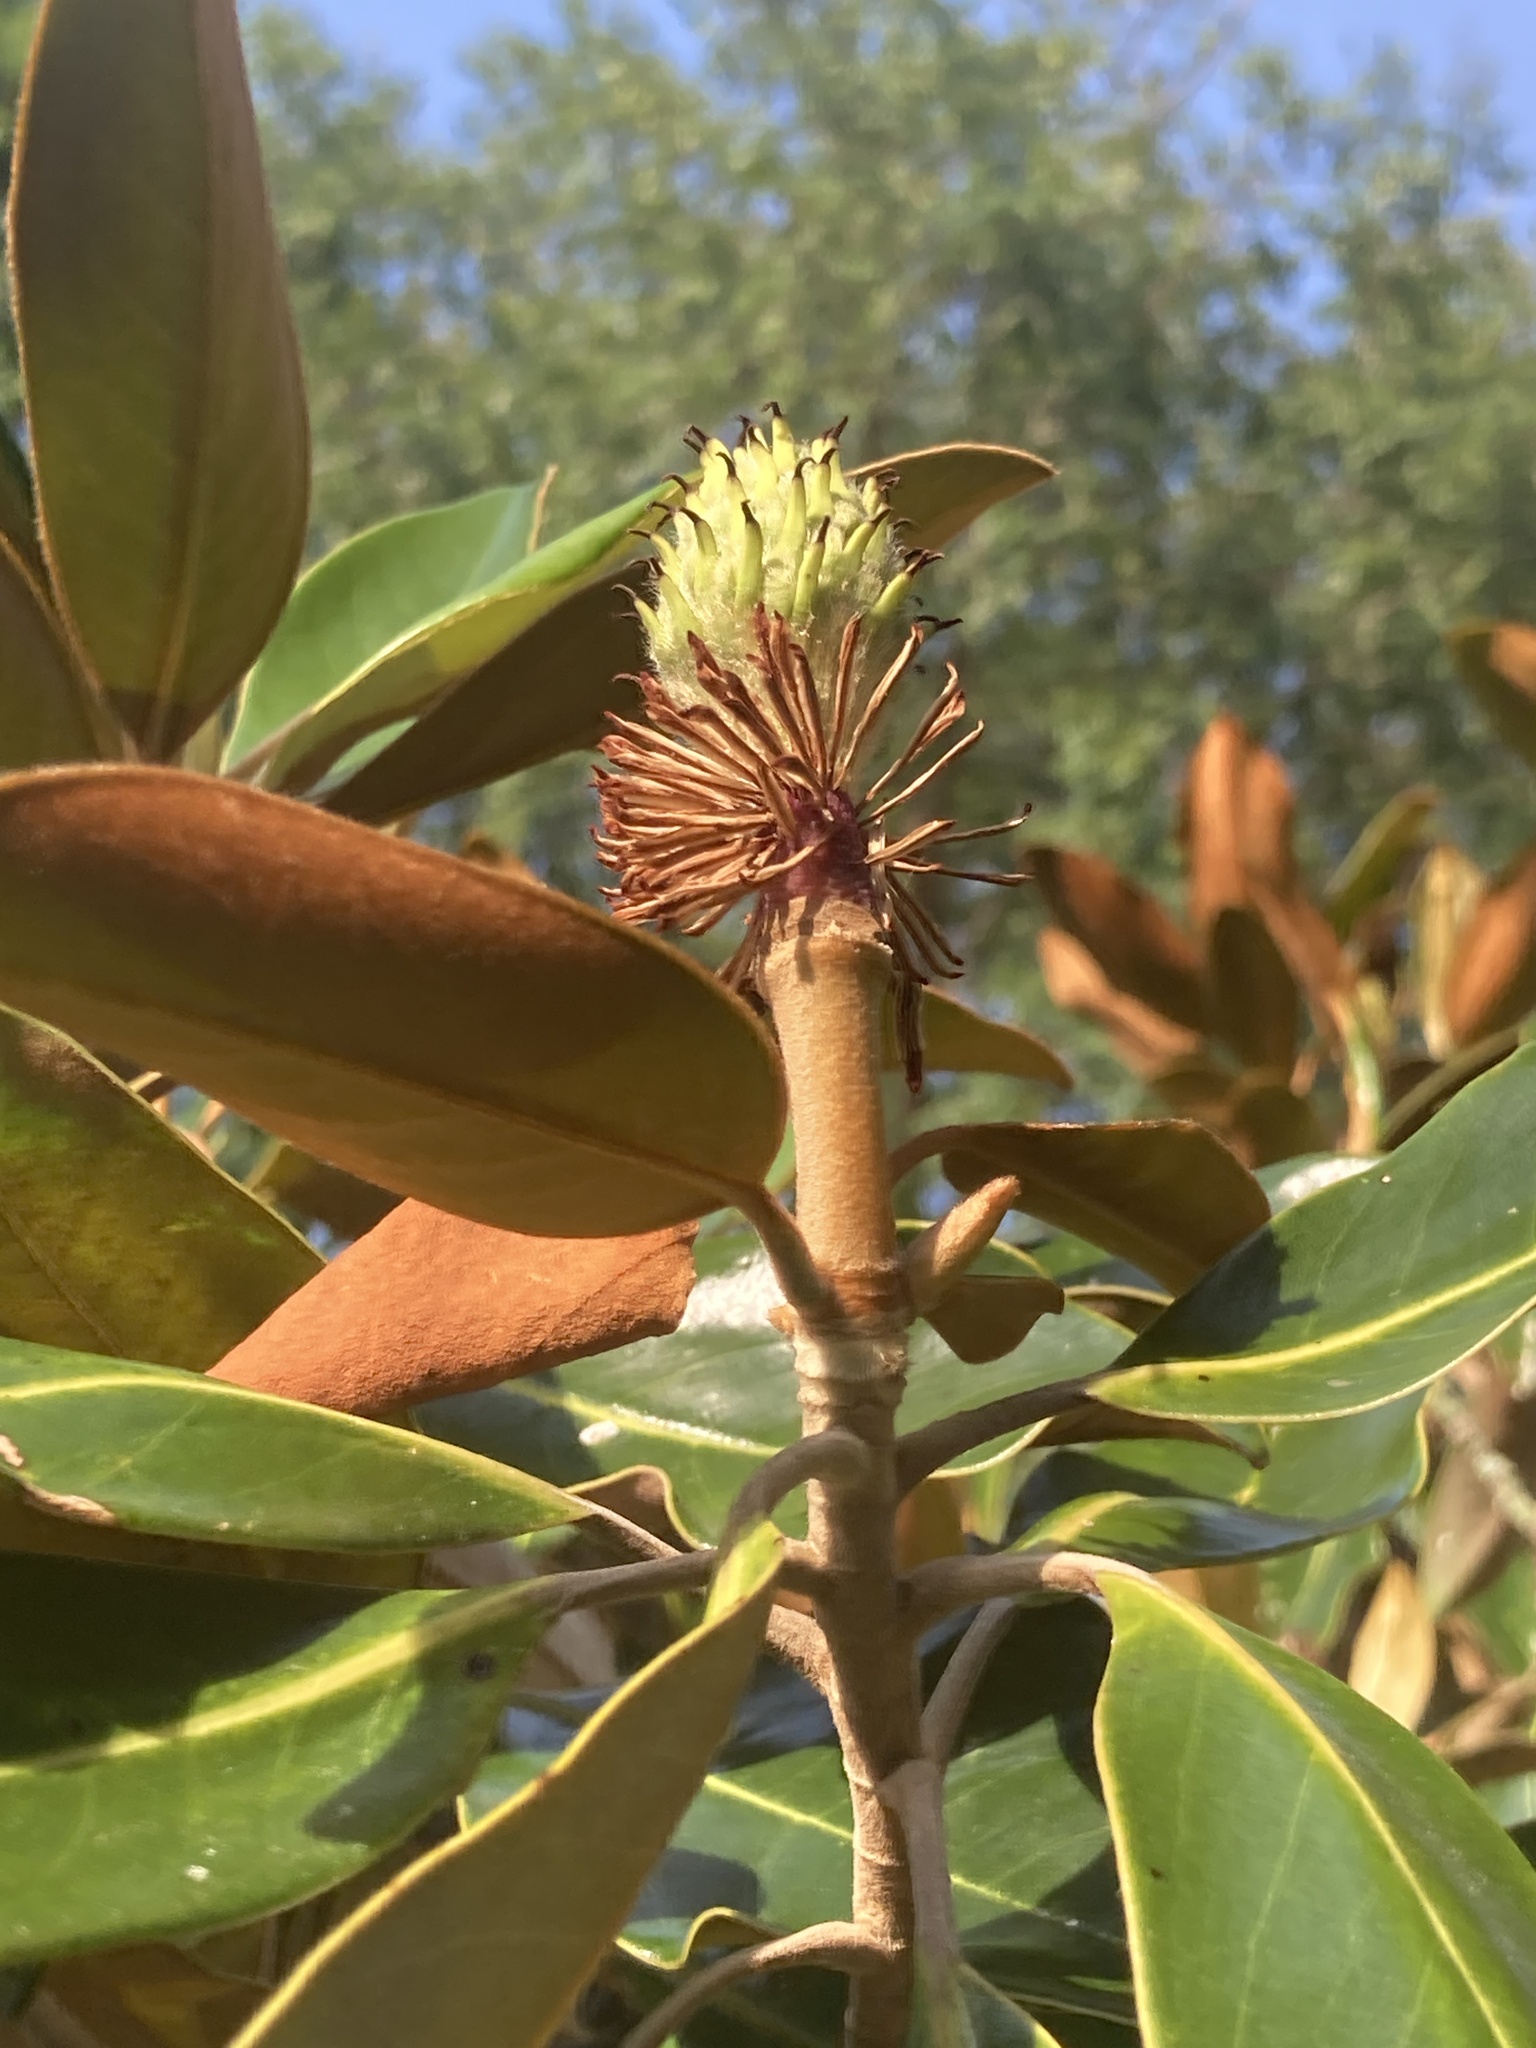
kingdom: Plantae
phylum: Tracheophyta
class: Magnoliopsida
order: Magnoliales
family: Magnoliaceae
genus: Magnolia
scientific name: Magnolia grandiflora
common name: Southern magnolia
